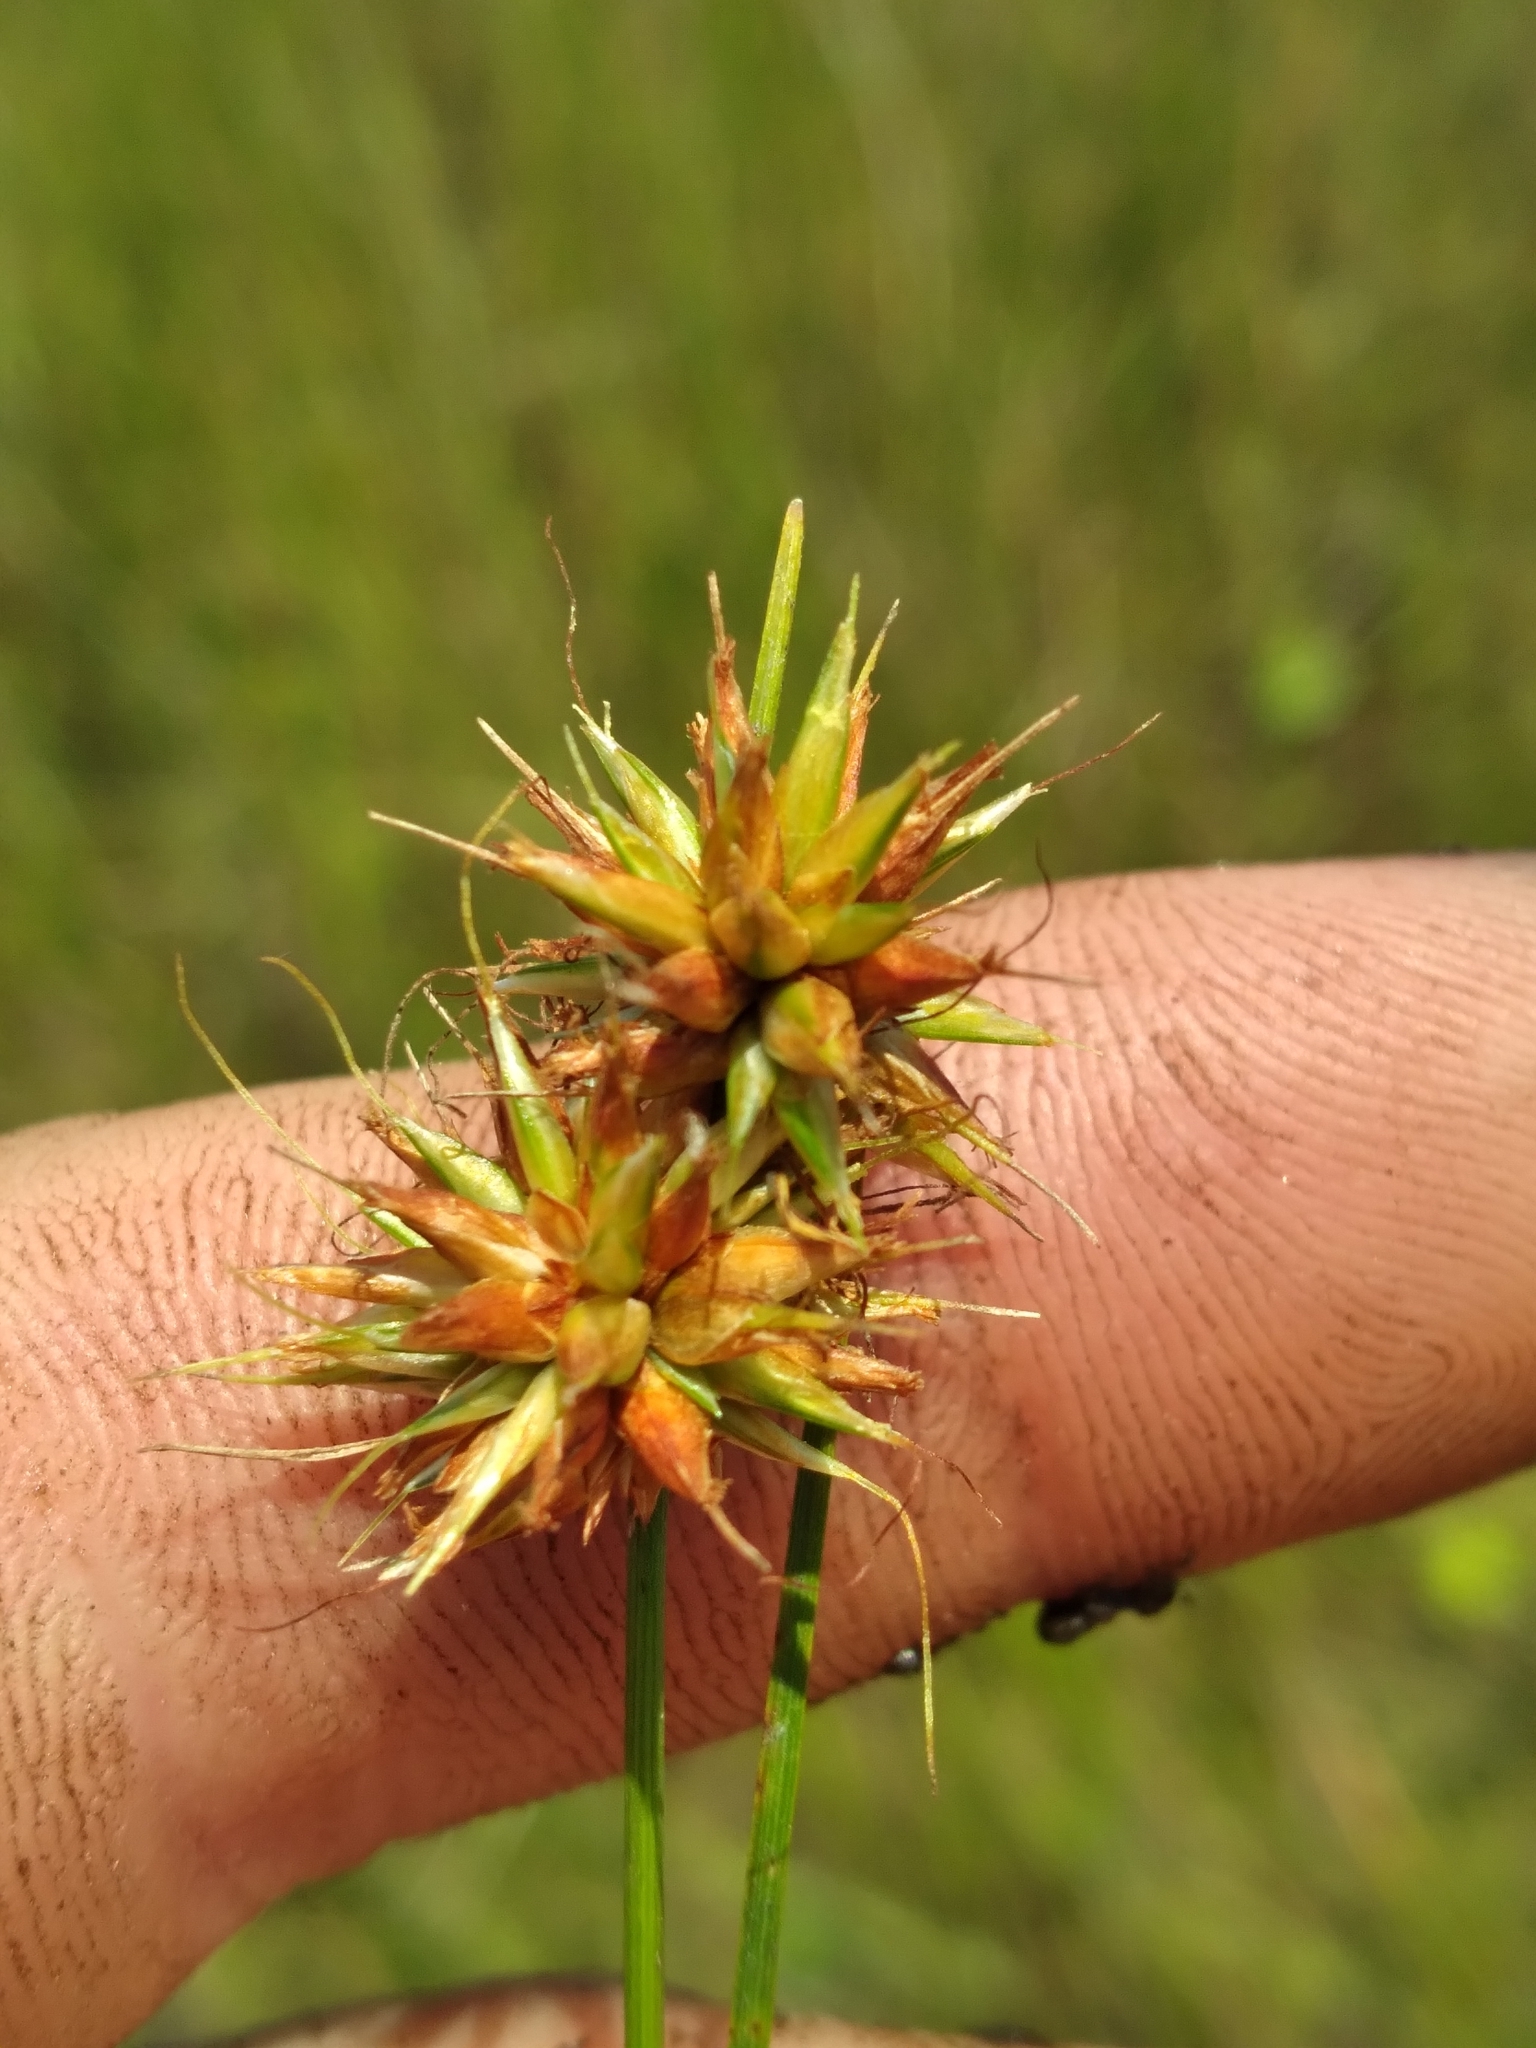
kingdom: Plantae
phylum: Tracheophyta
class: Liliopsida
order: Poales
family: Cyperaceae
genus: Rhynchospora
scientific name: Rhynchospora tracyi
